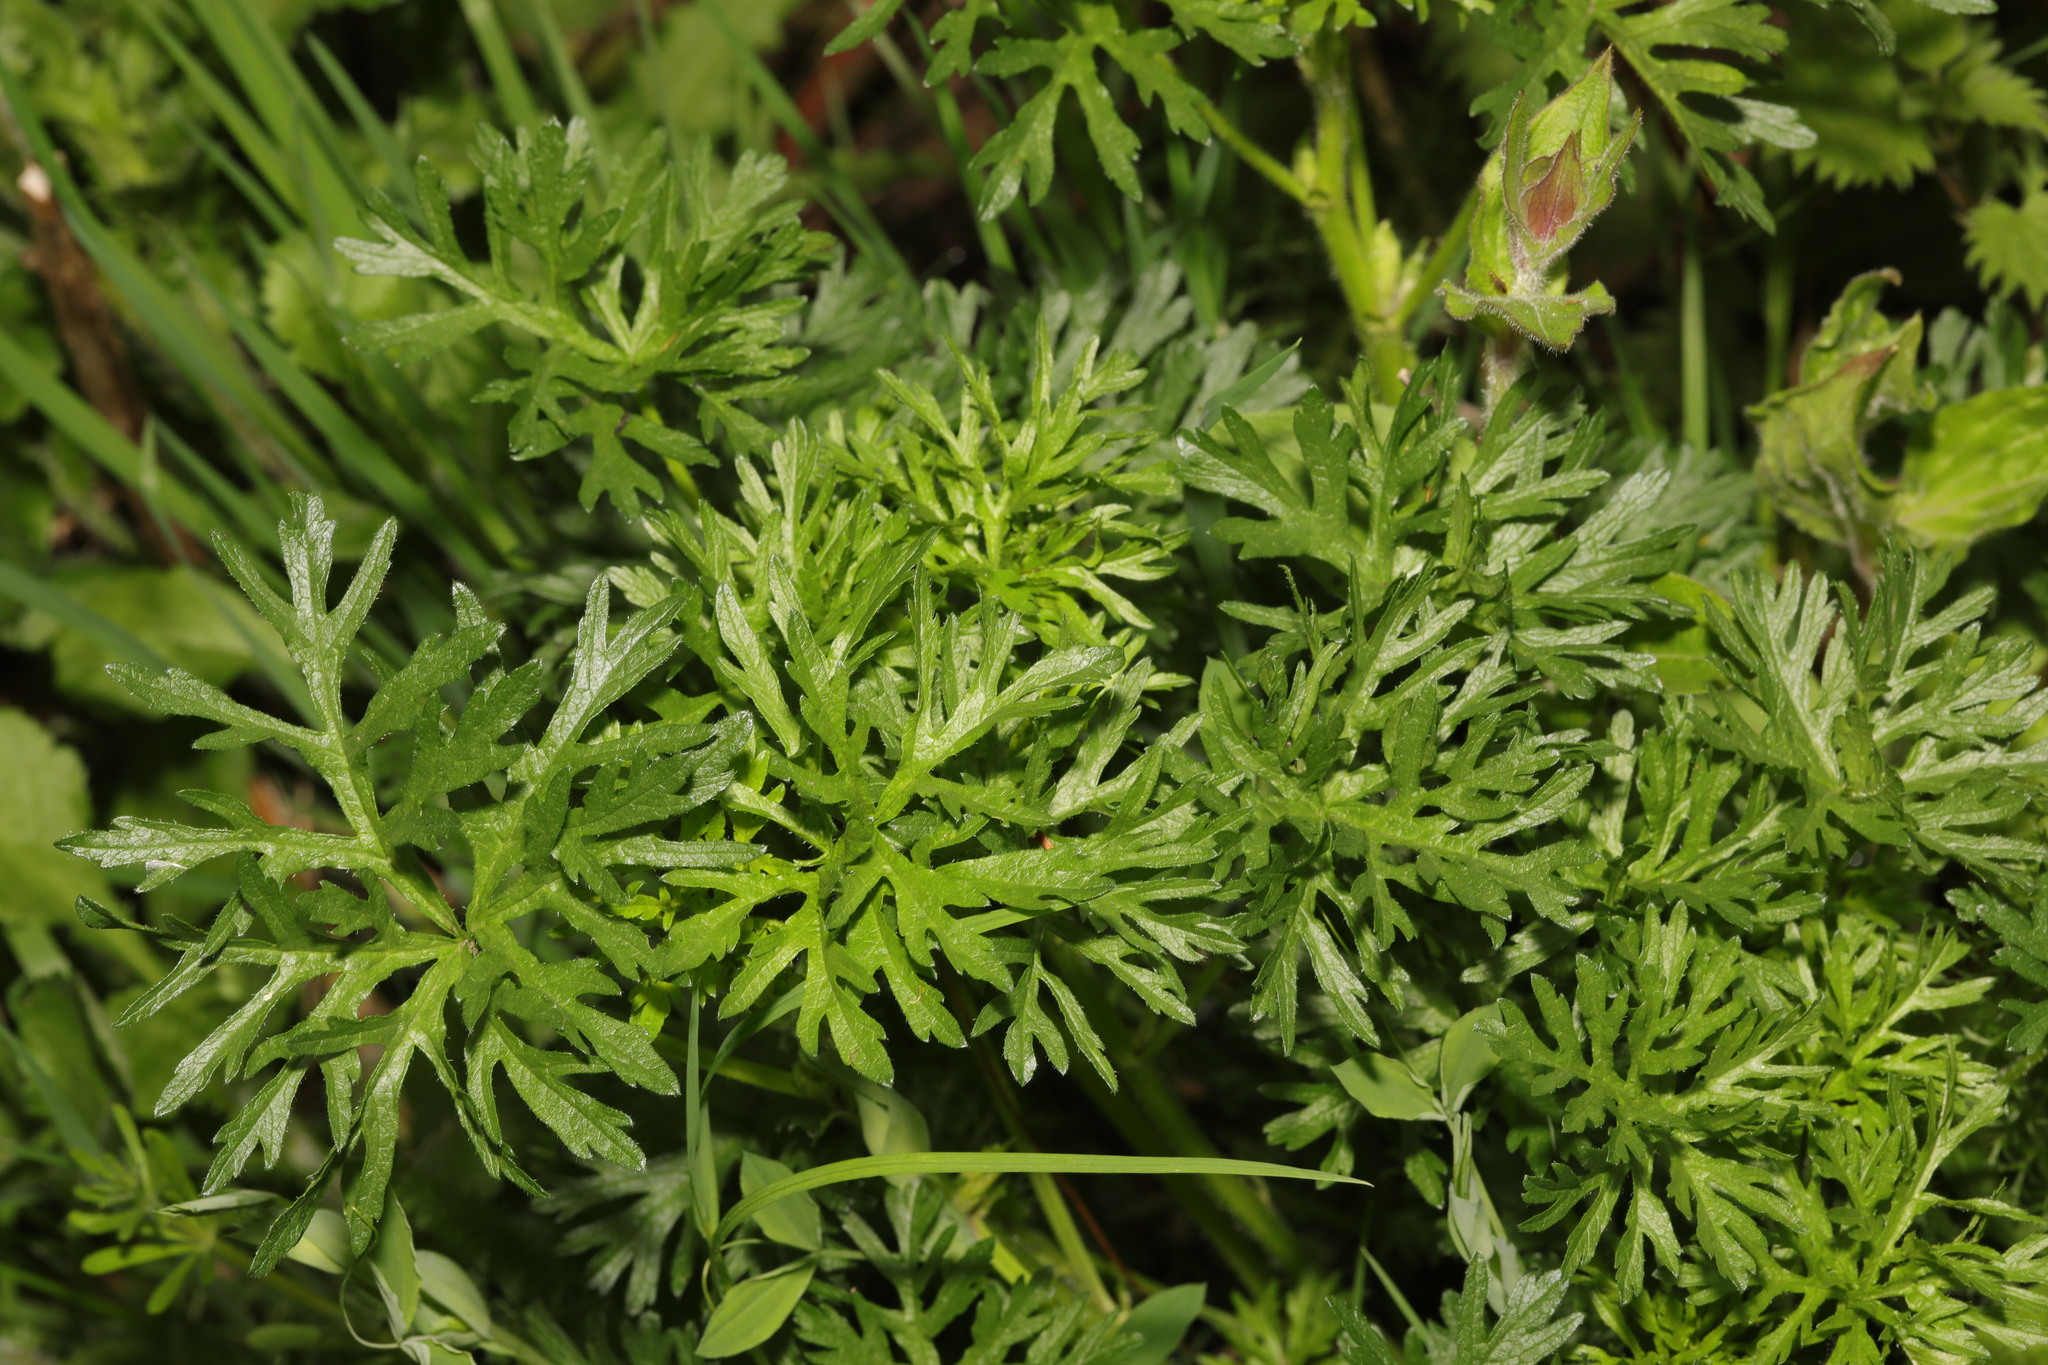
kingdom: Plantae
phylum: Tracheophyta
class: Magnoliopsida
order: Geraniales
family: Geraniaceae
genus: Geranium
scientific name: Geranium dissectum
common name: Cut-leaved crane's-bill
